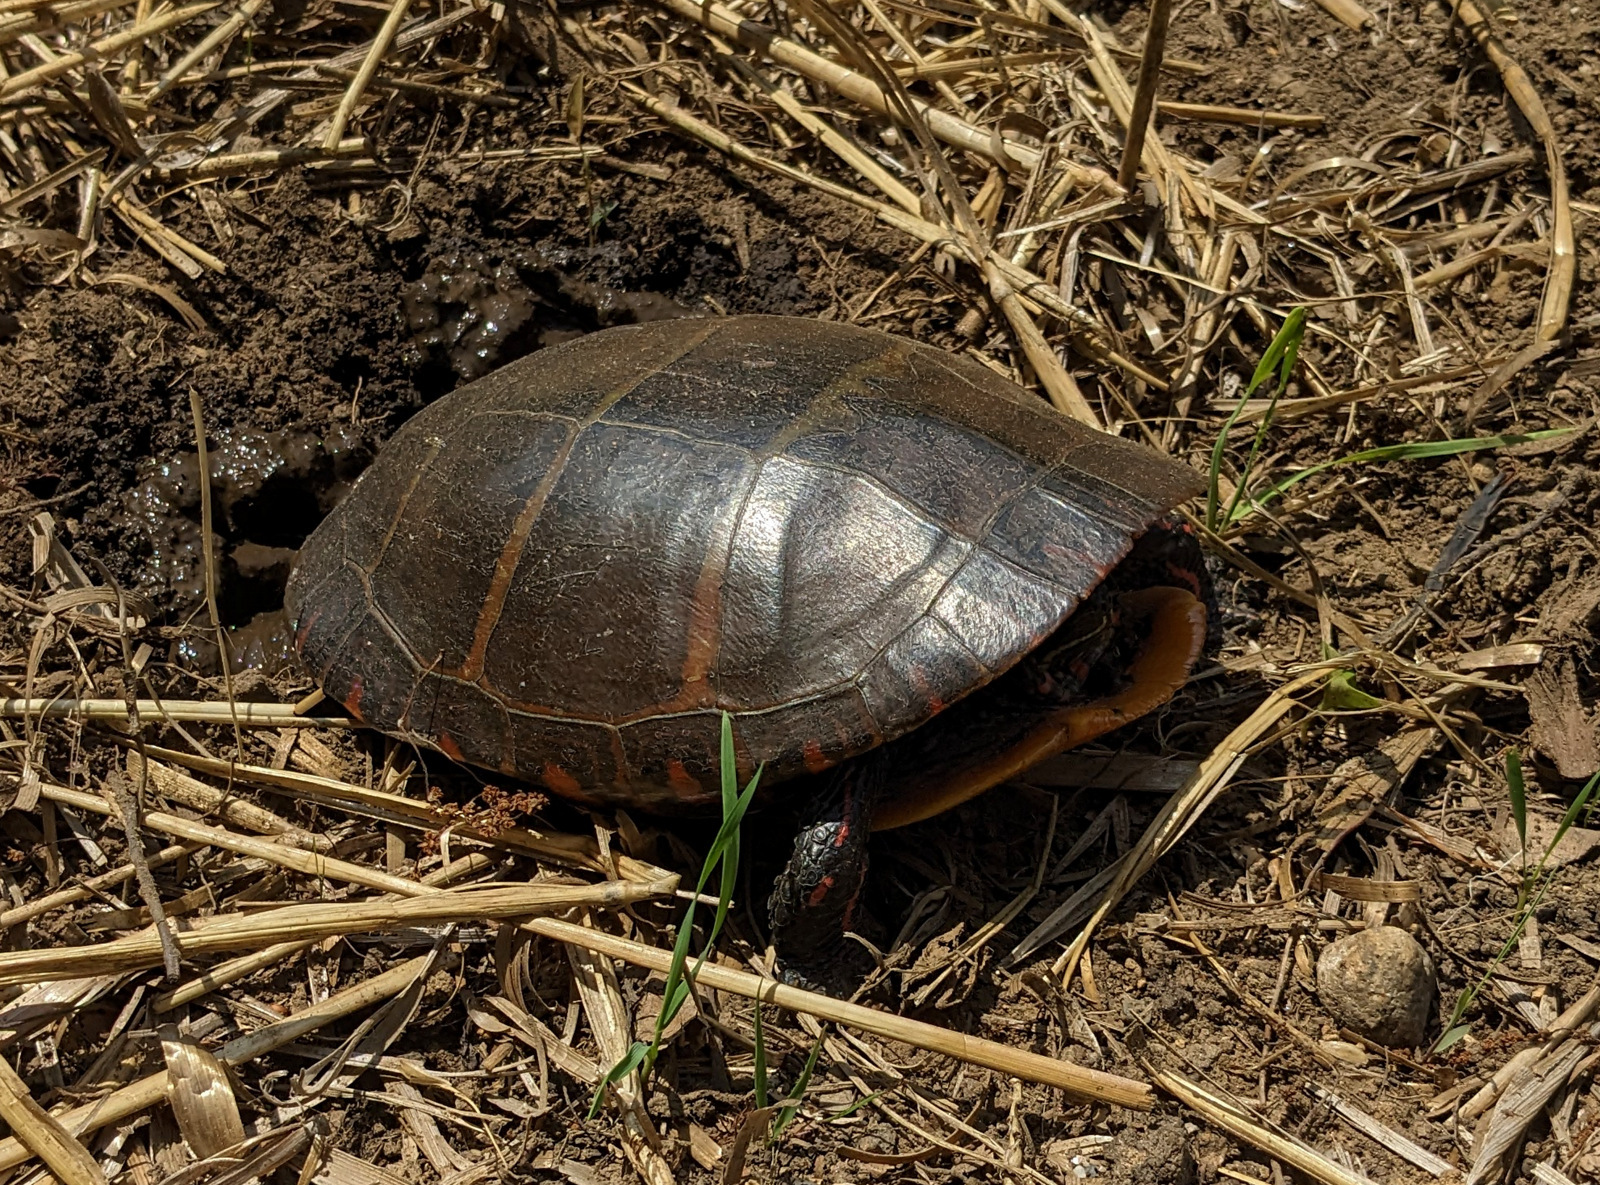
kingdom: Animalia
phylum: Chordata
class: Testudines
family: Emydidae
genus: Chrysemys
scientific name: Chrysemys picta
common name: Painted turtle
